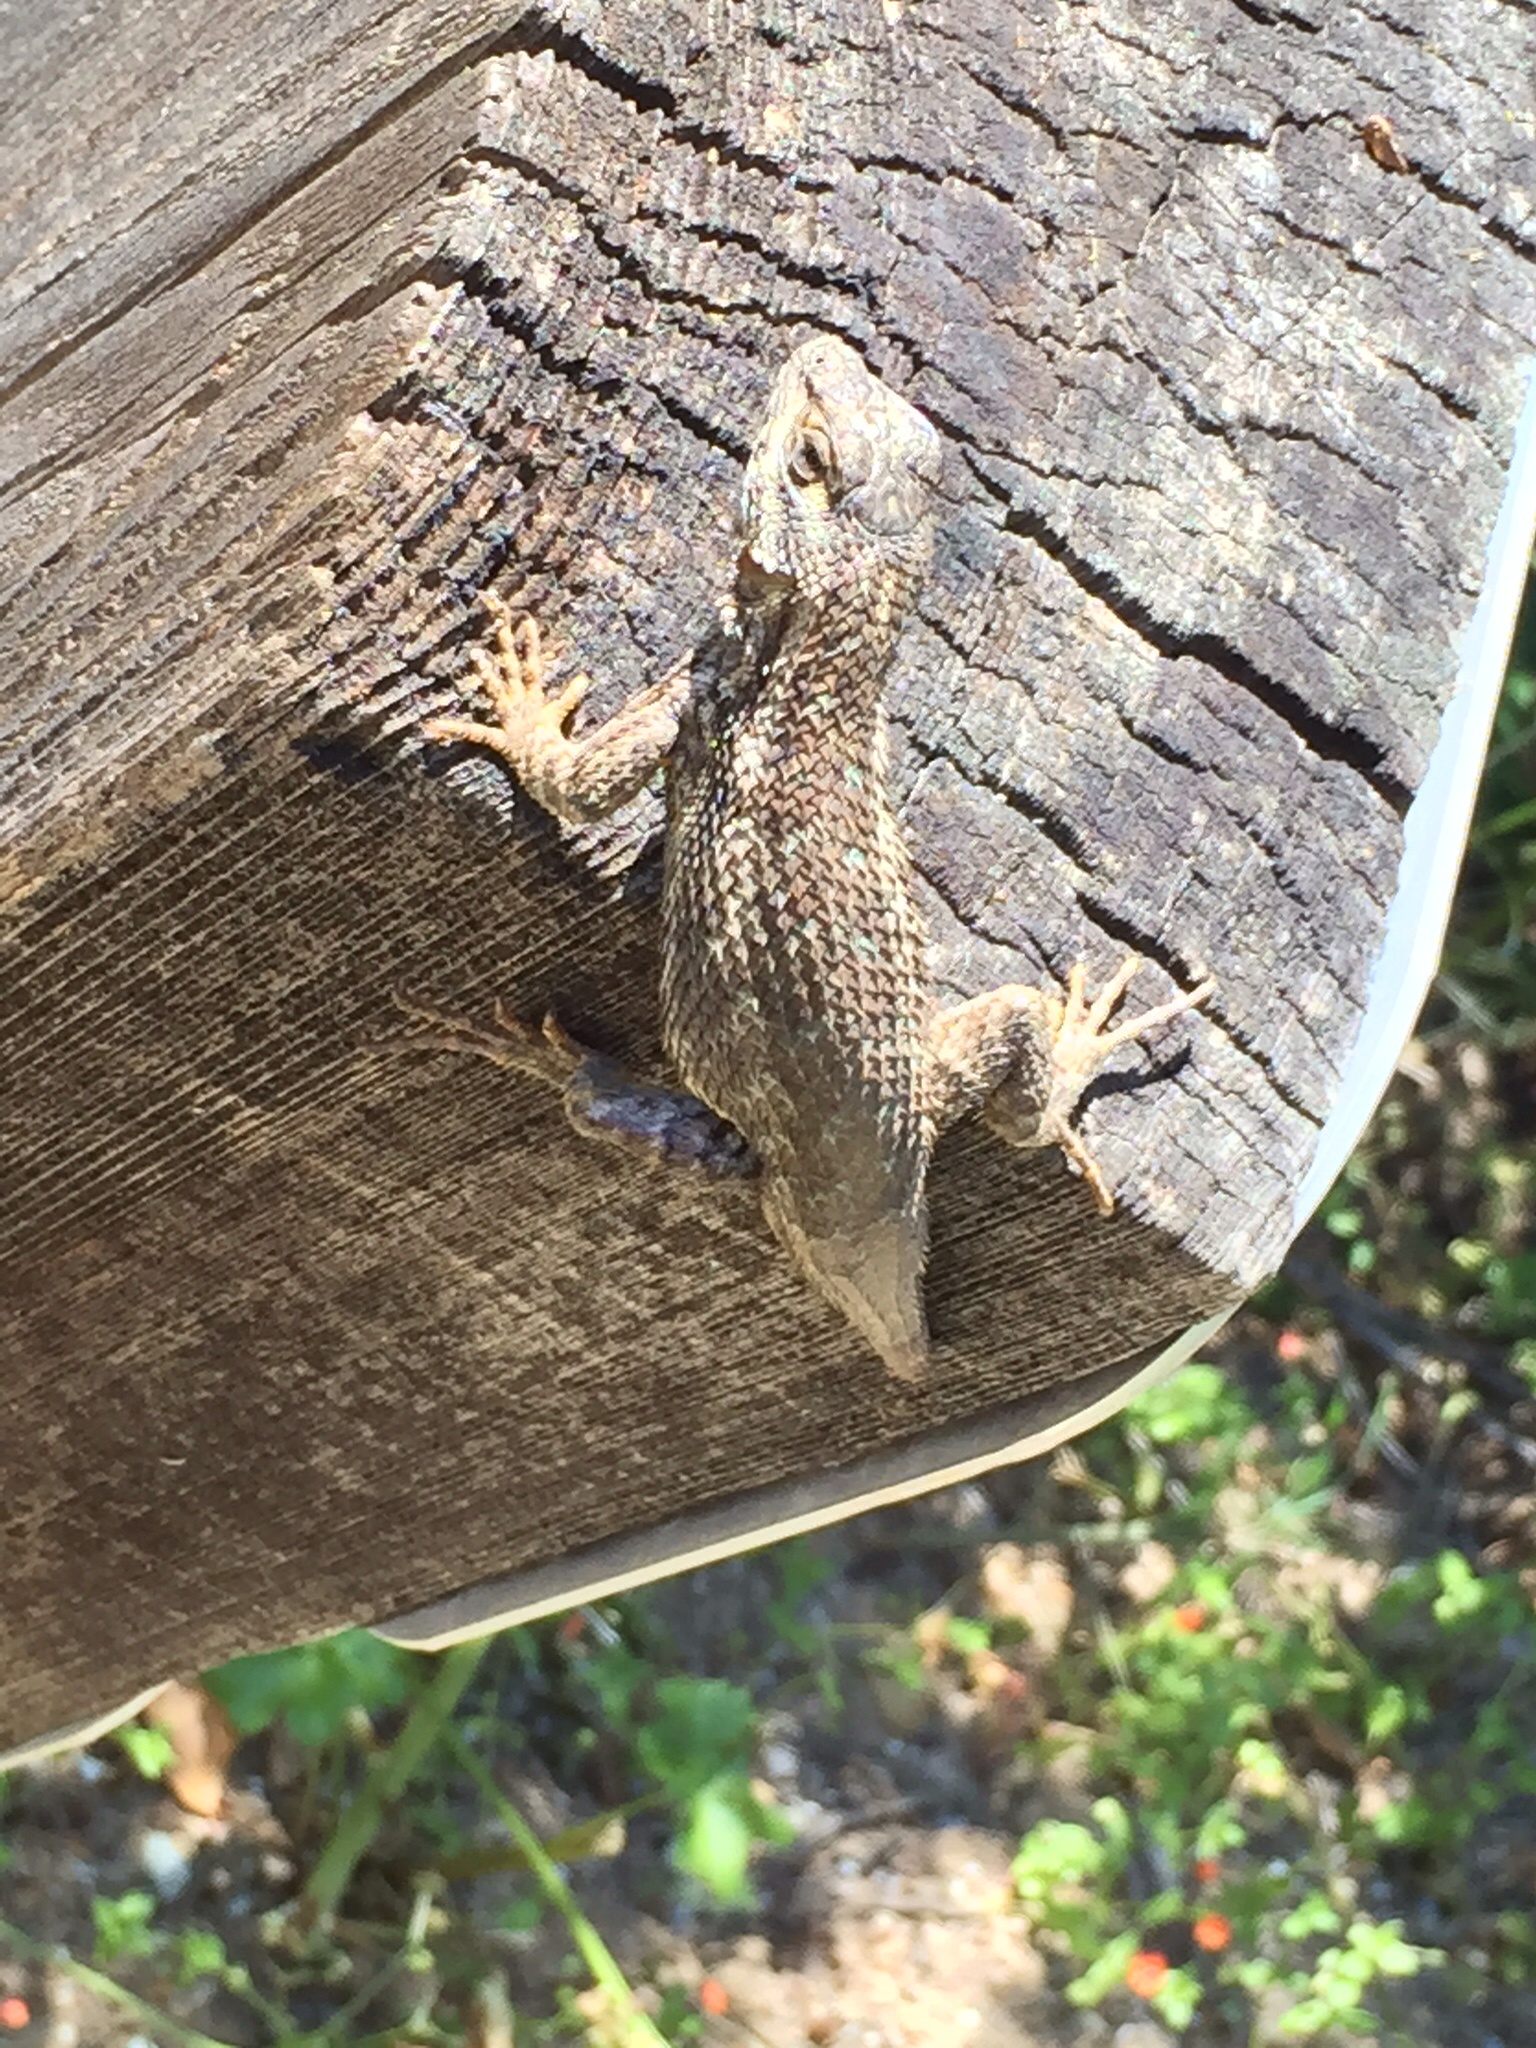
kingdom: Animalia
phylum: Chordata
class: Squamata
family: Phrynosomatidae
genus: Sceloporus
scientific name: Sceloporus occidentalis
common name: Western fence lizard
